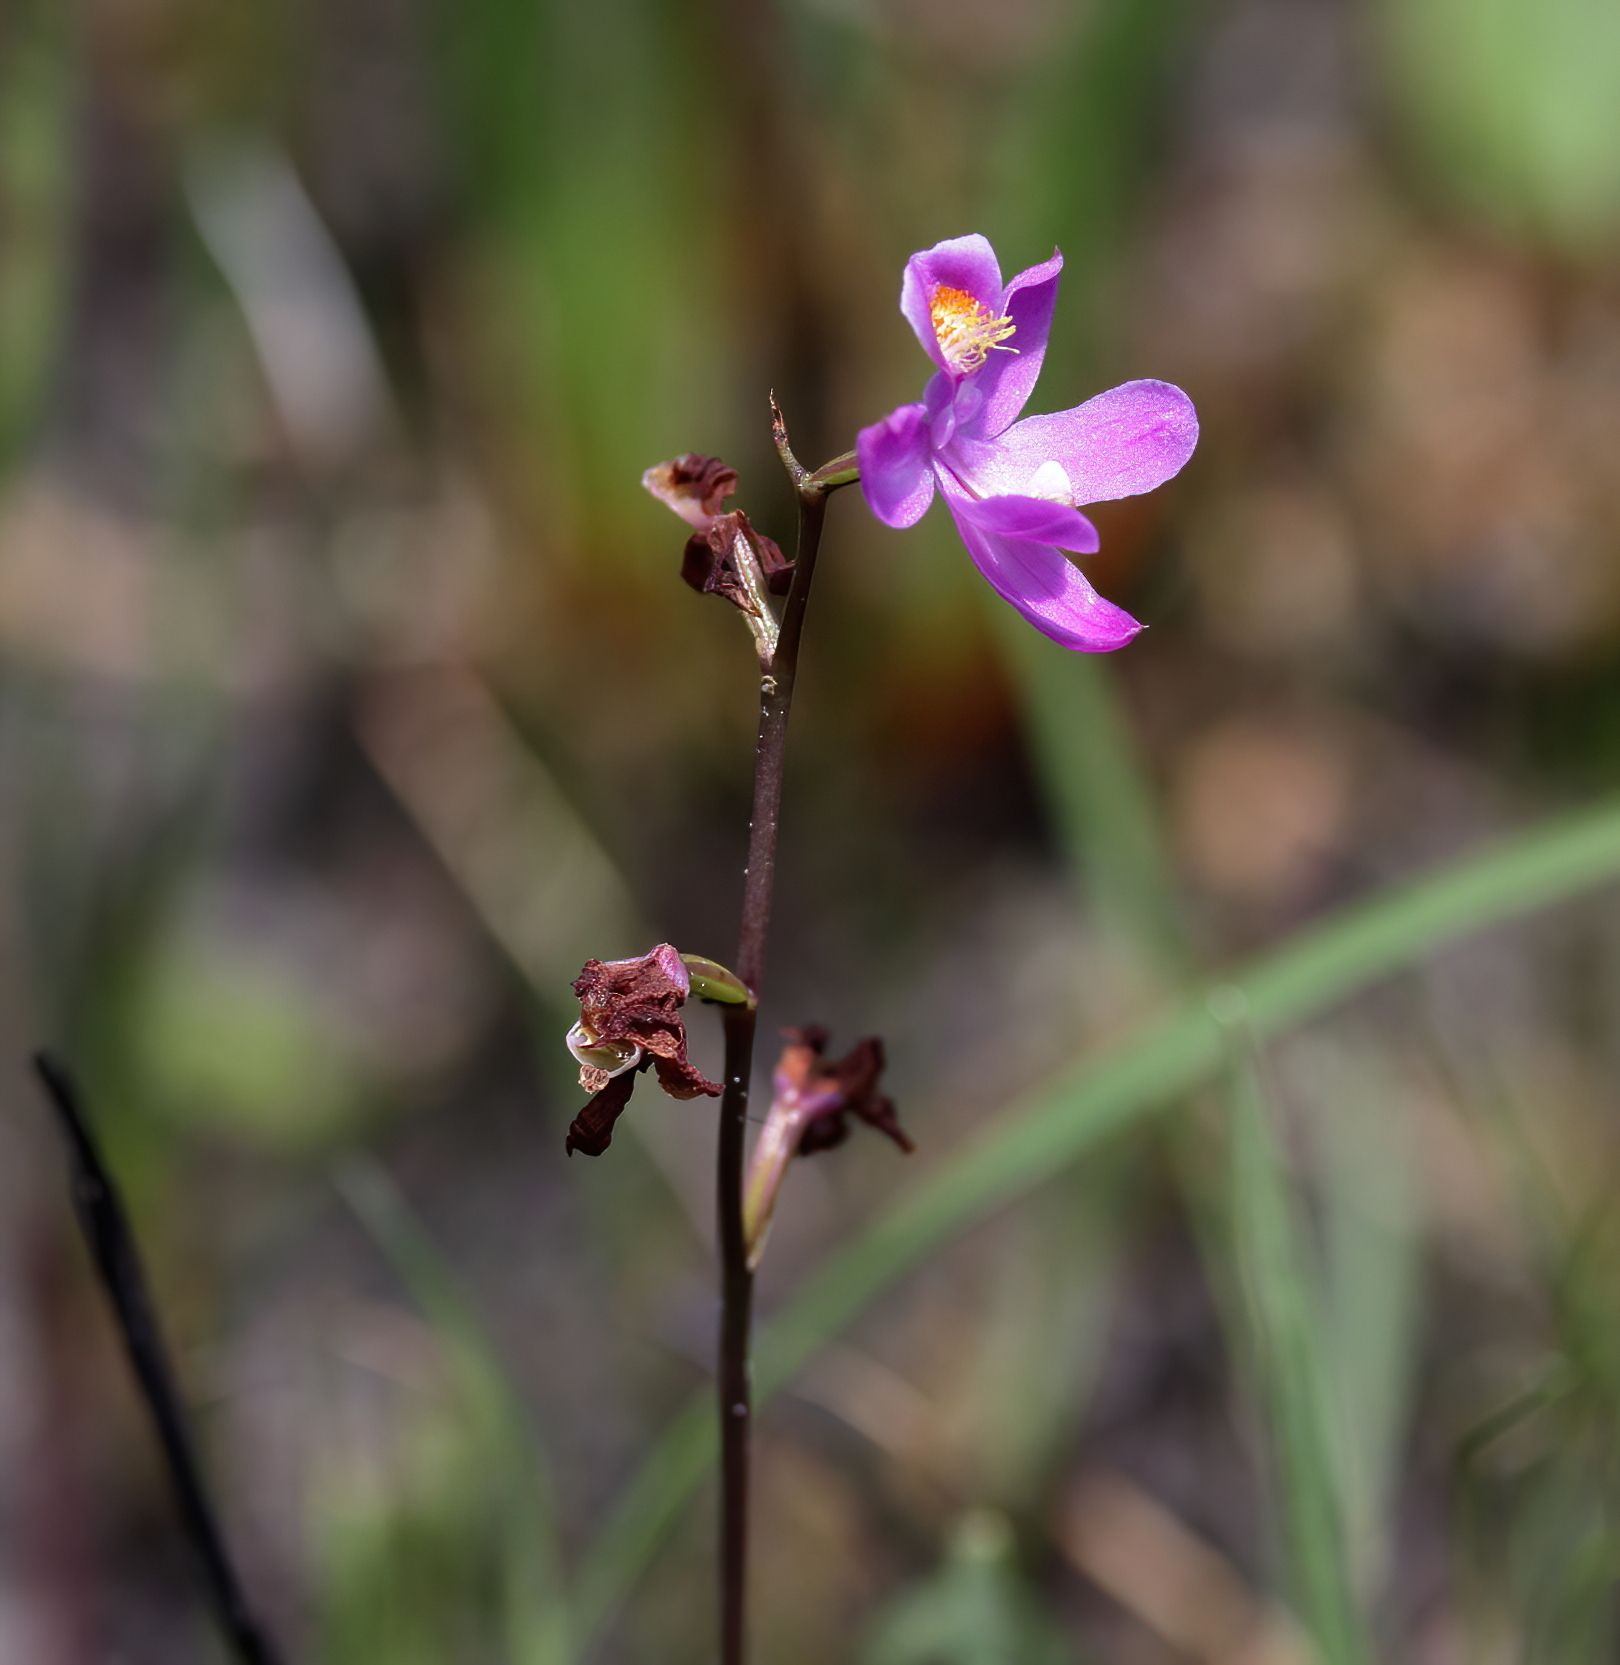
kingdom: Plantae
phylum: Tracheophyta
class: Liliopsida
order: Asparagales
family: Orchidaceae
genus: Calopogon
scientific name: Calopogon multiflorus
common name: Many-flowered grass-pink orchid
